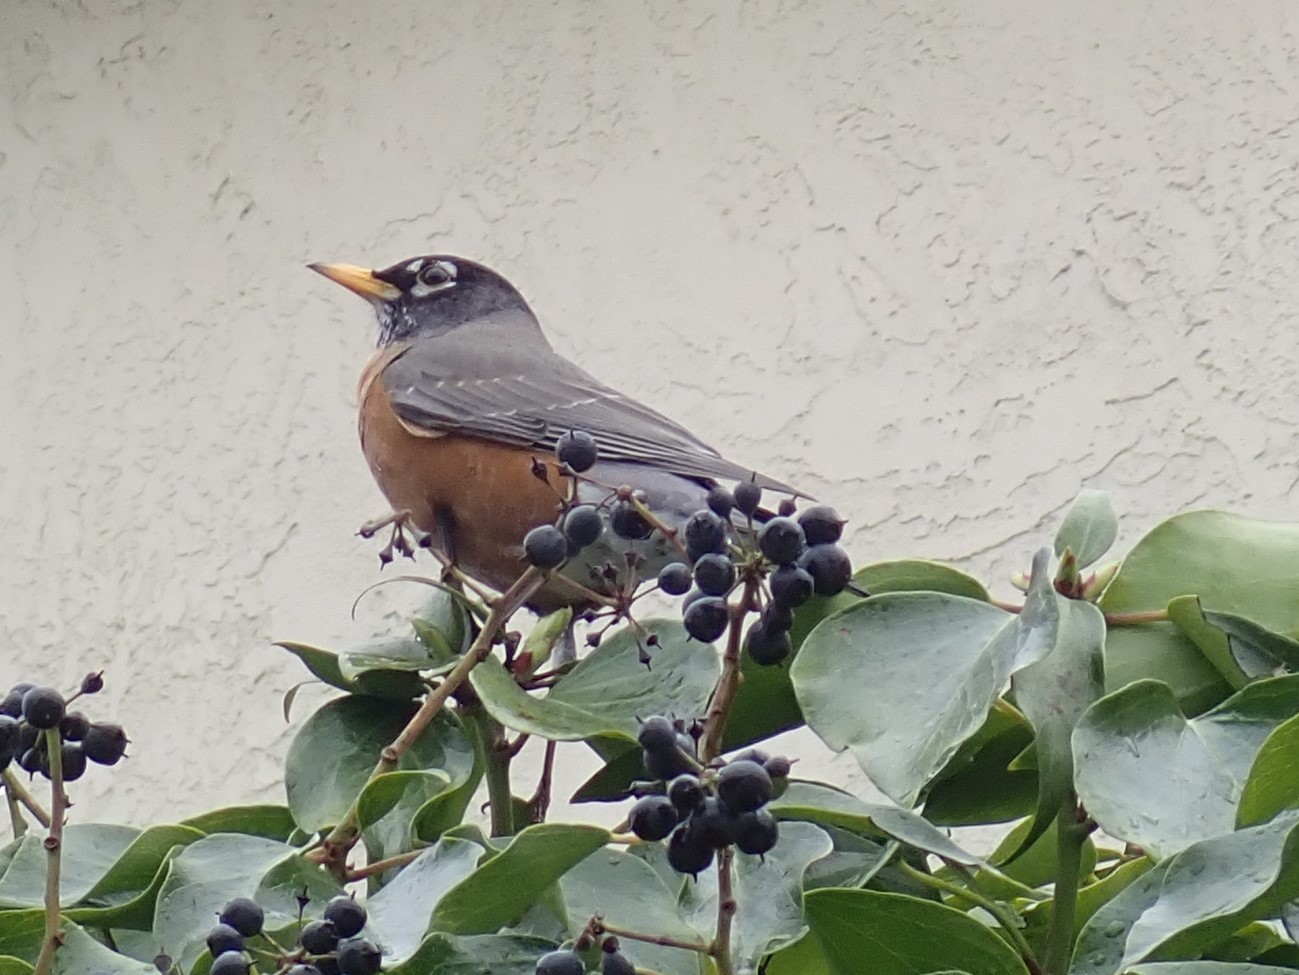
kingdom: Animalia
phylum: Chordata
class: Aves
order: Passeriformes
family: Turdidae
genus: Turdus
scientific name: Turdus migratorius
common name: American robin
